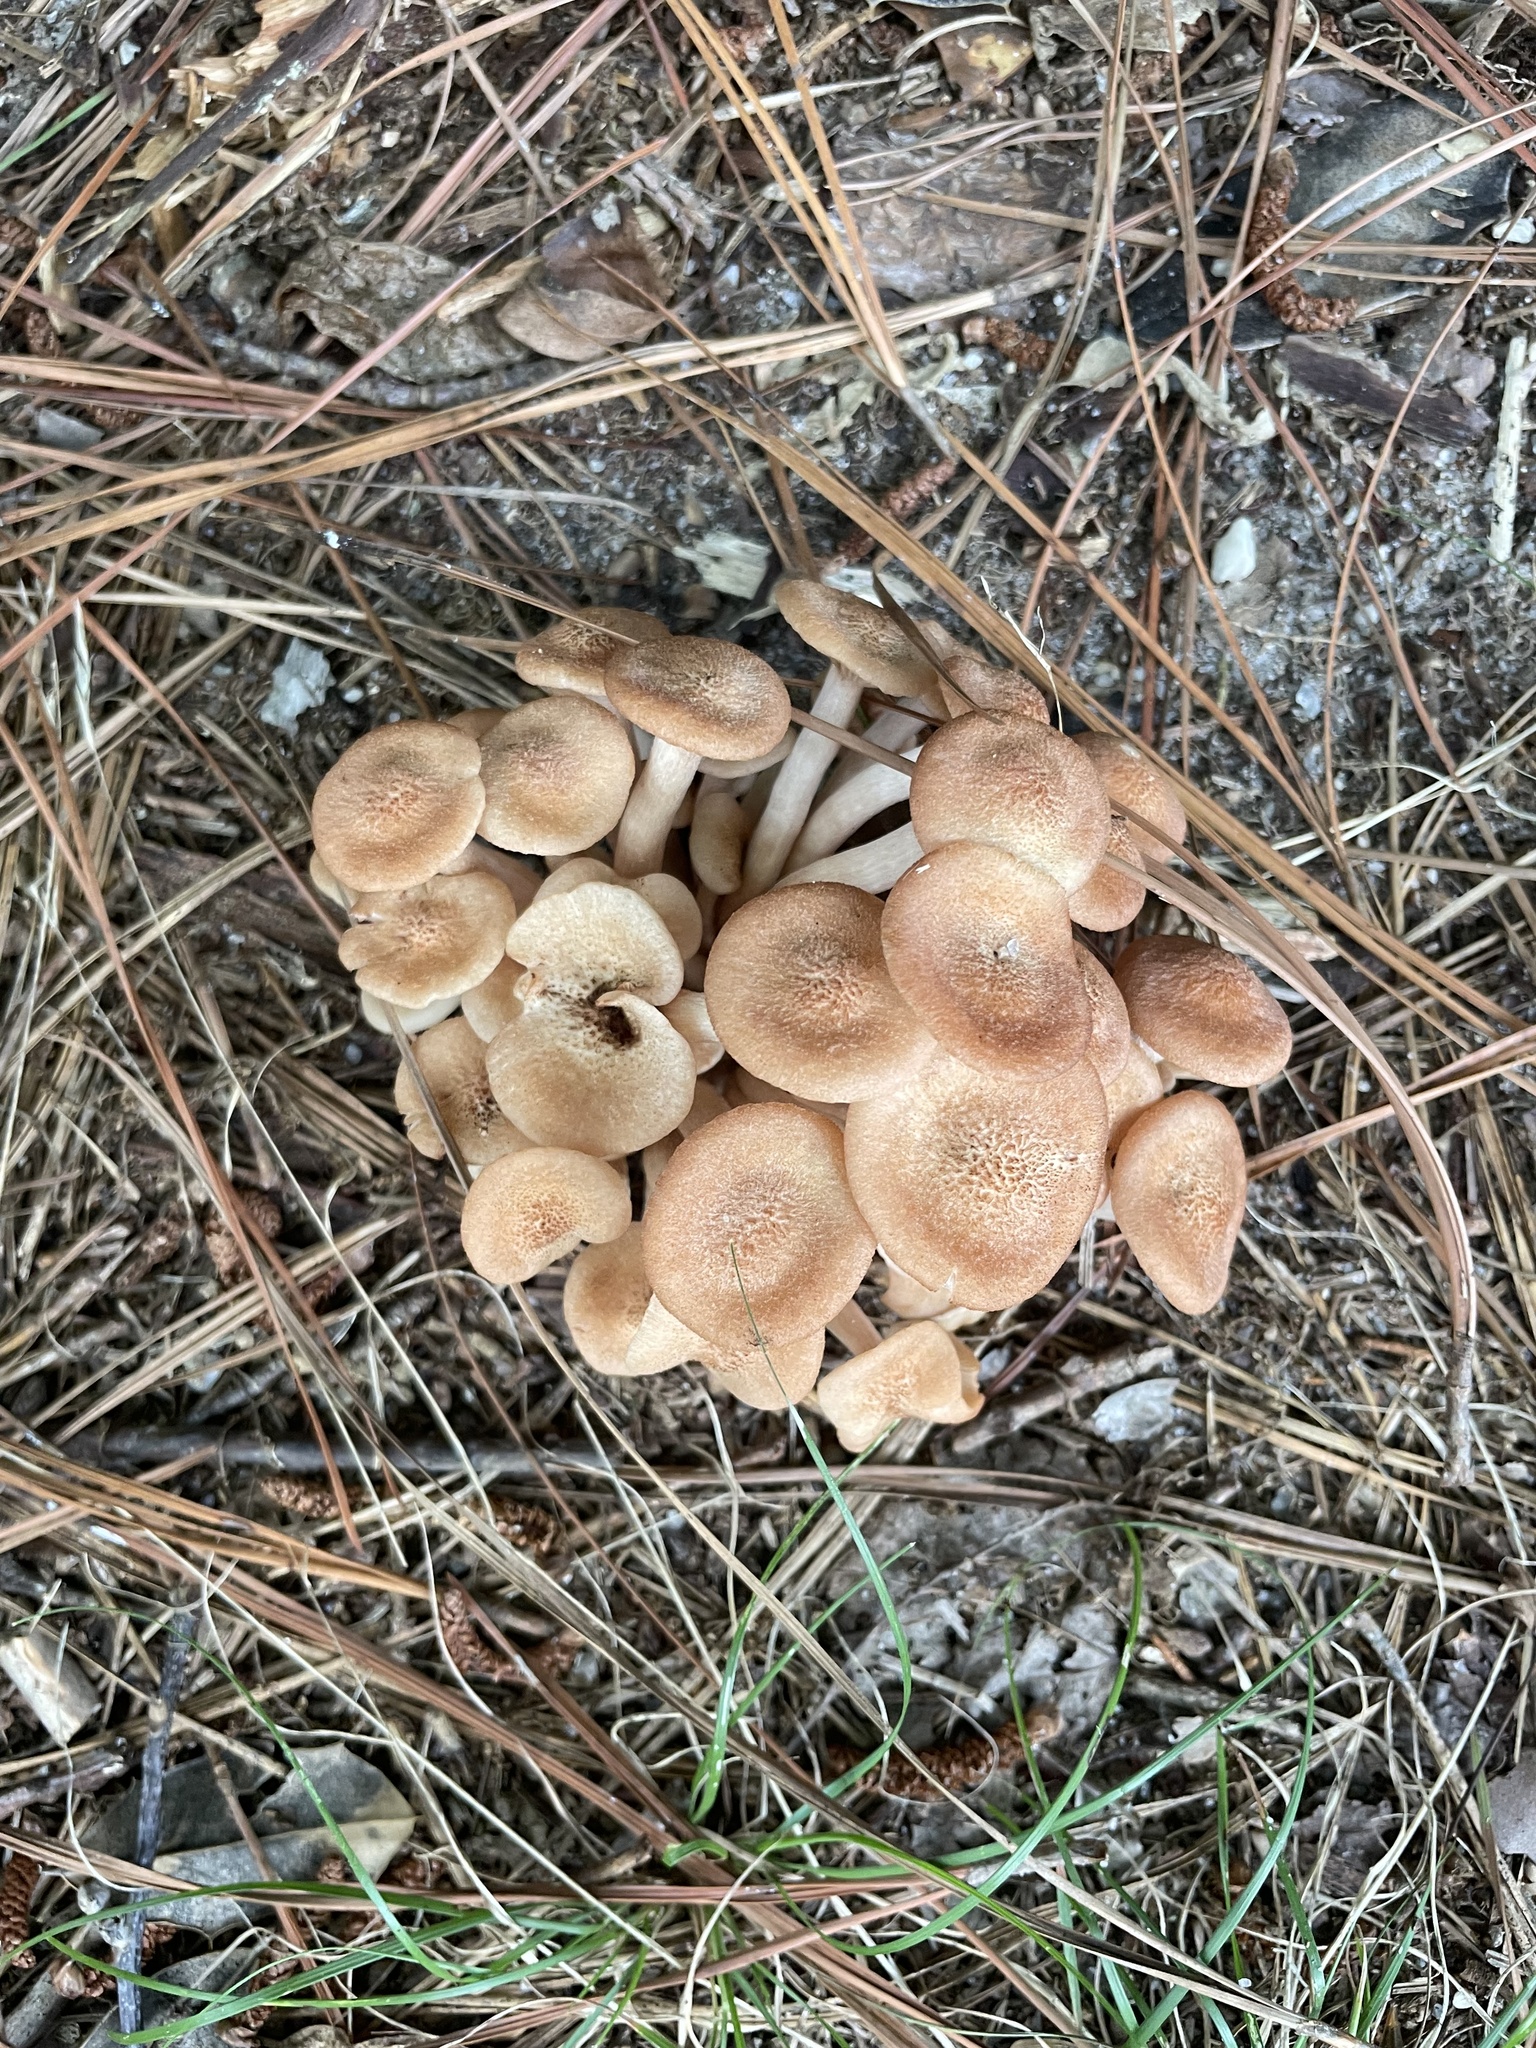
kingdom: Fungi
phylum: Basidiomycota
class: Agaricomycetes
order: Agaricales
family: Physalacriaceae
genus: Desarmillaria
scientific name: Desarmillaria caespitosa
